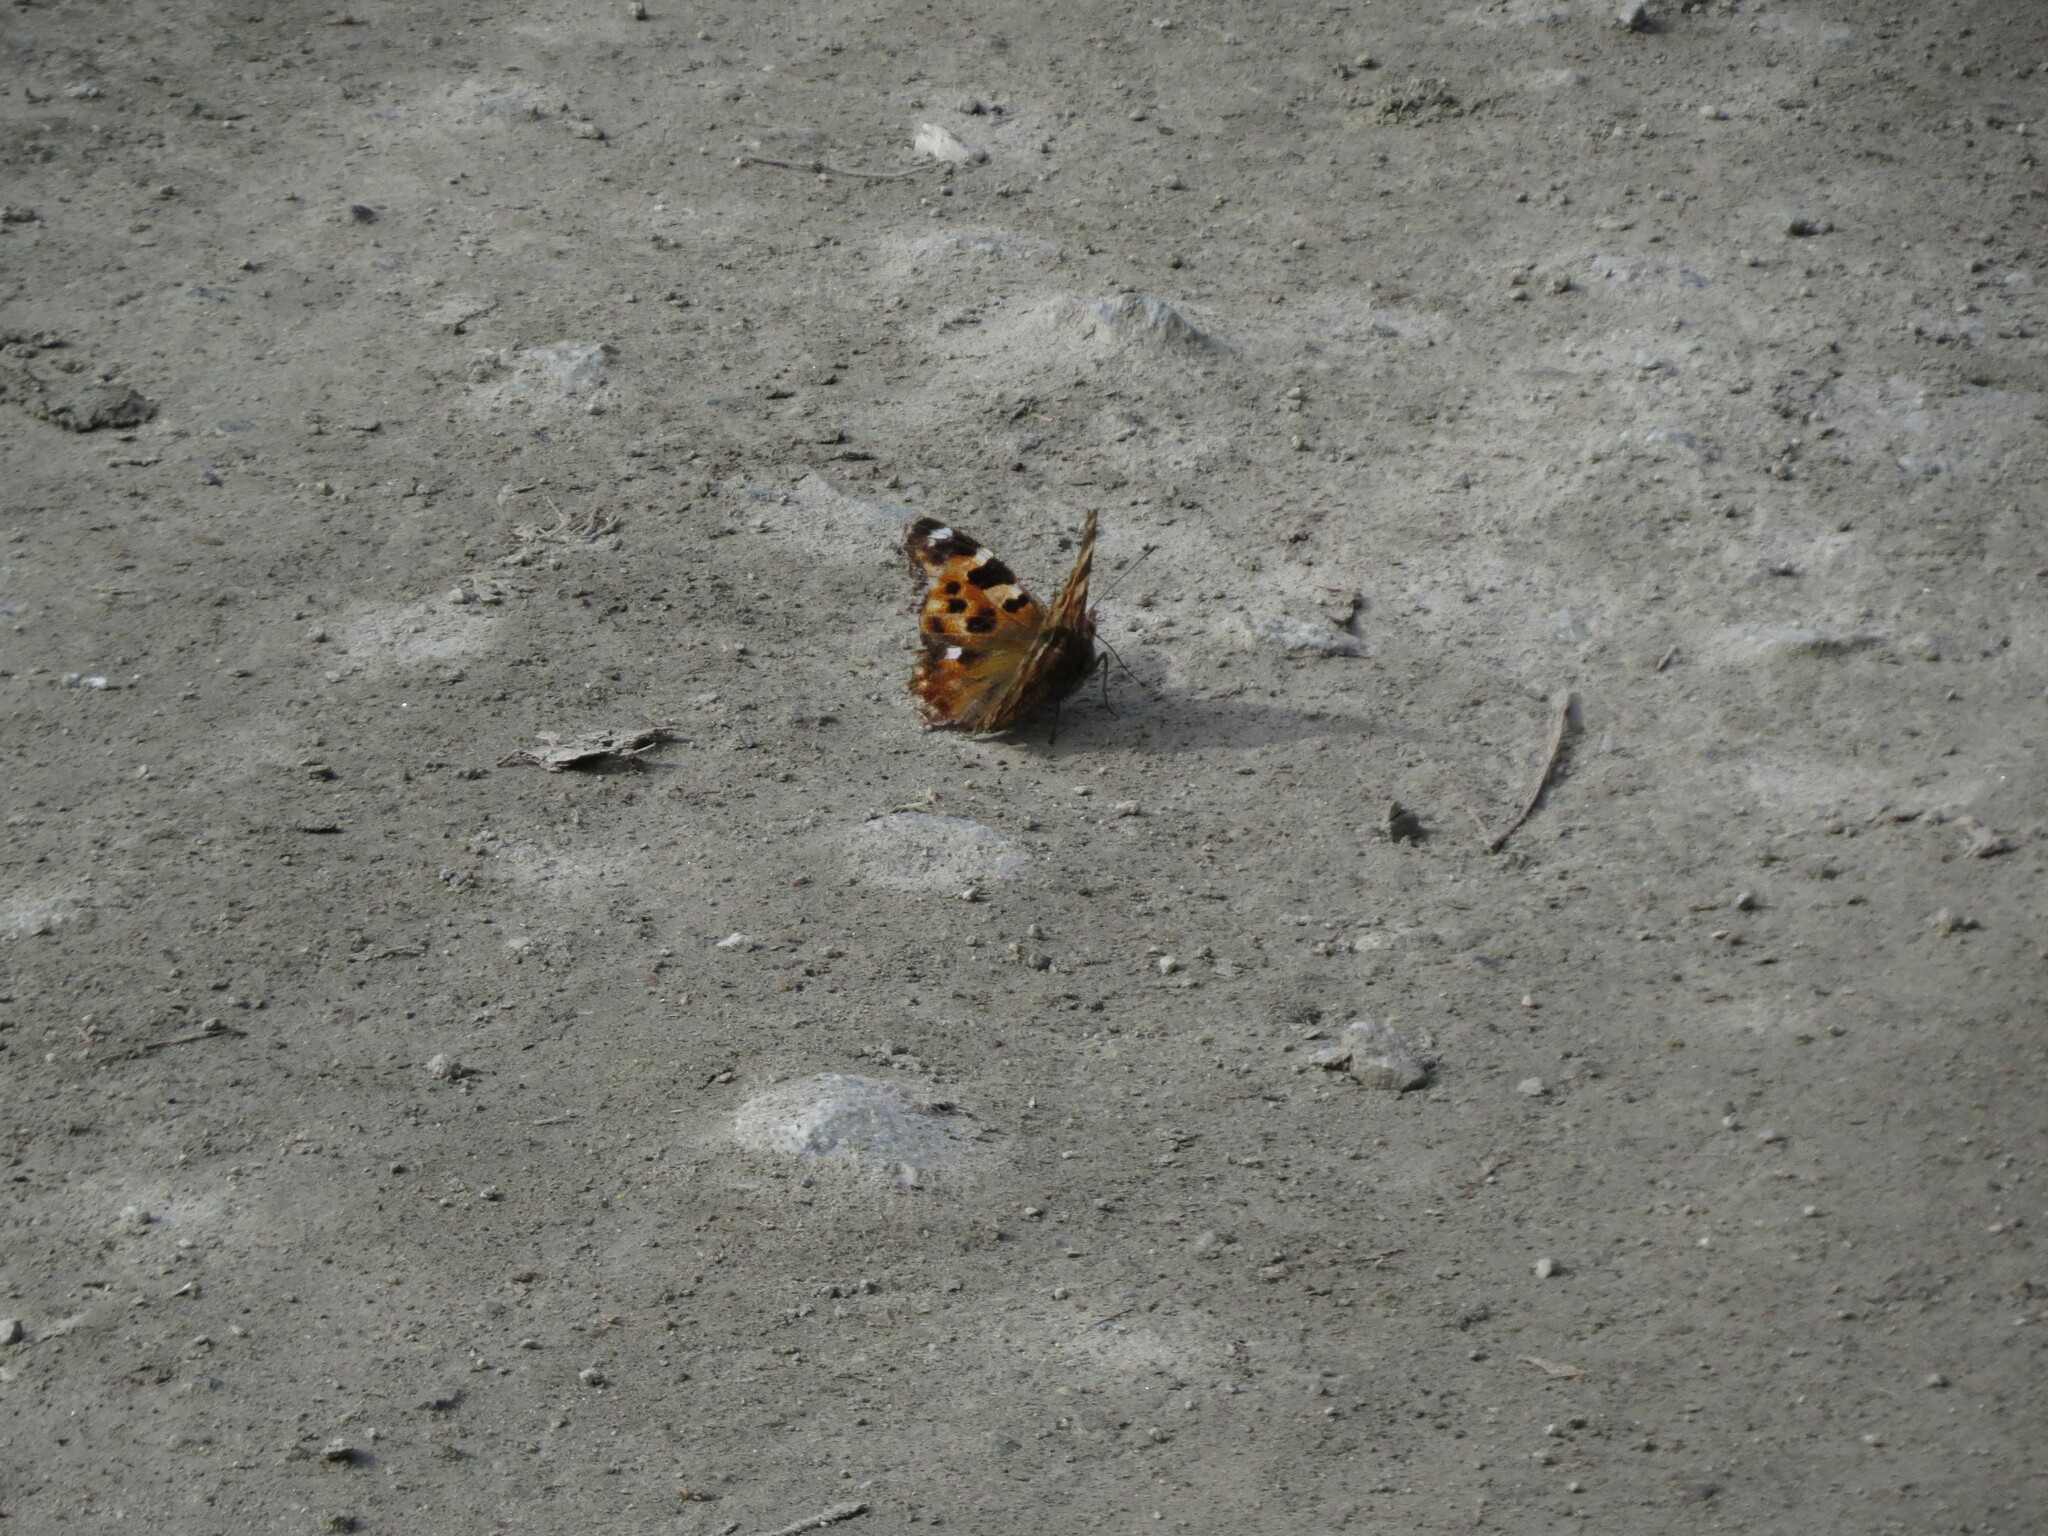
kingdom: Animalia
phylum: Arthropoda
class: Insecta
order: Lepidoptera
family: Nymphalidae
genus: Polygonia
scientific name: Polygonia vaualbum
